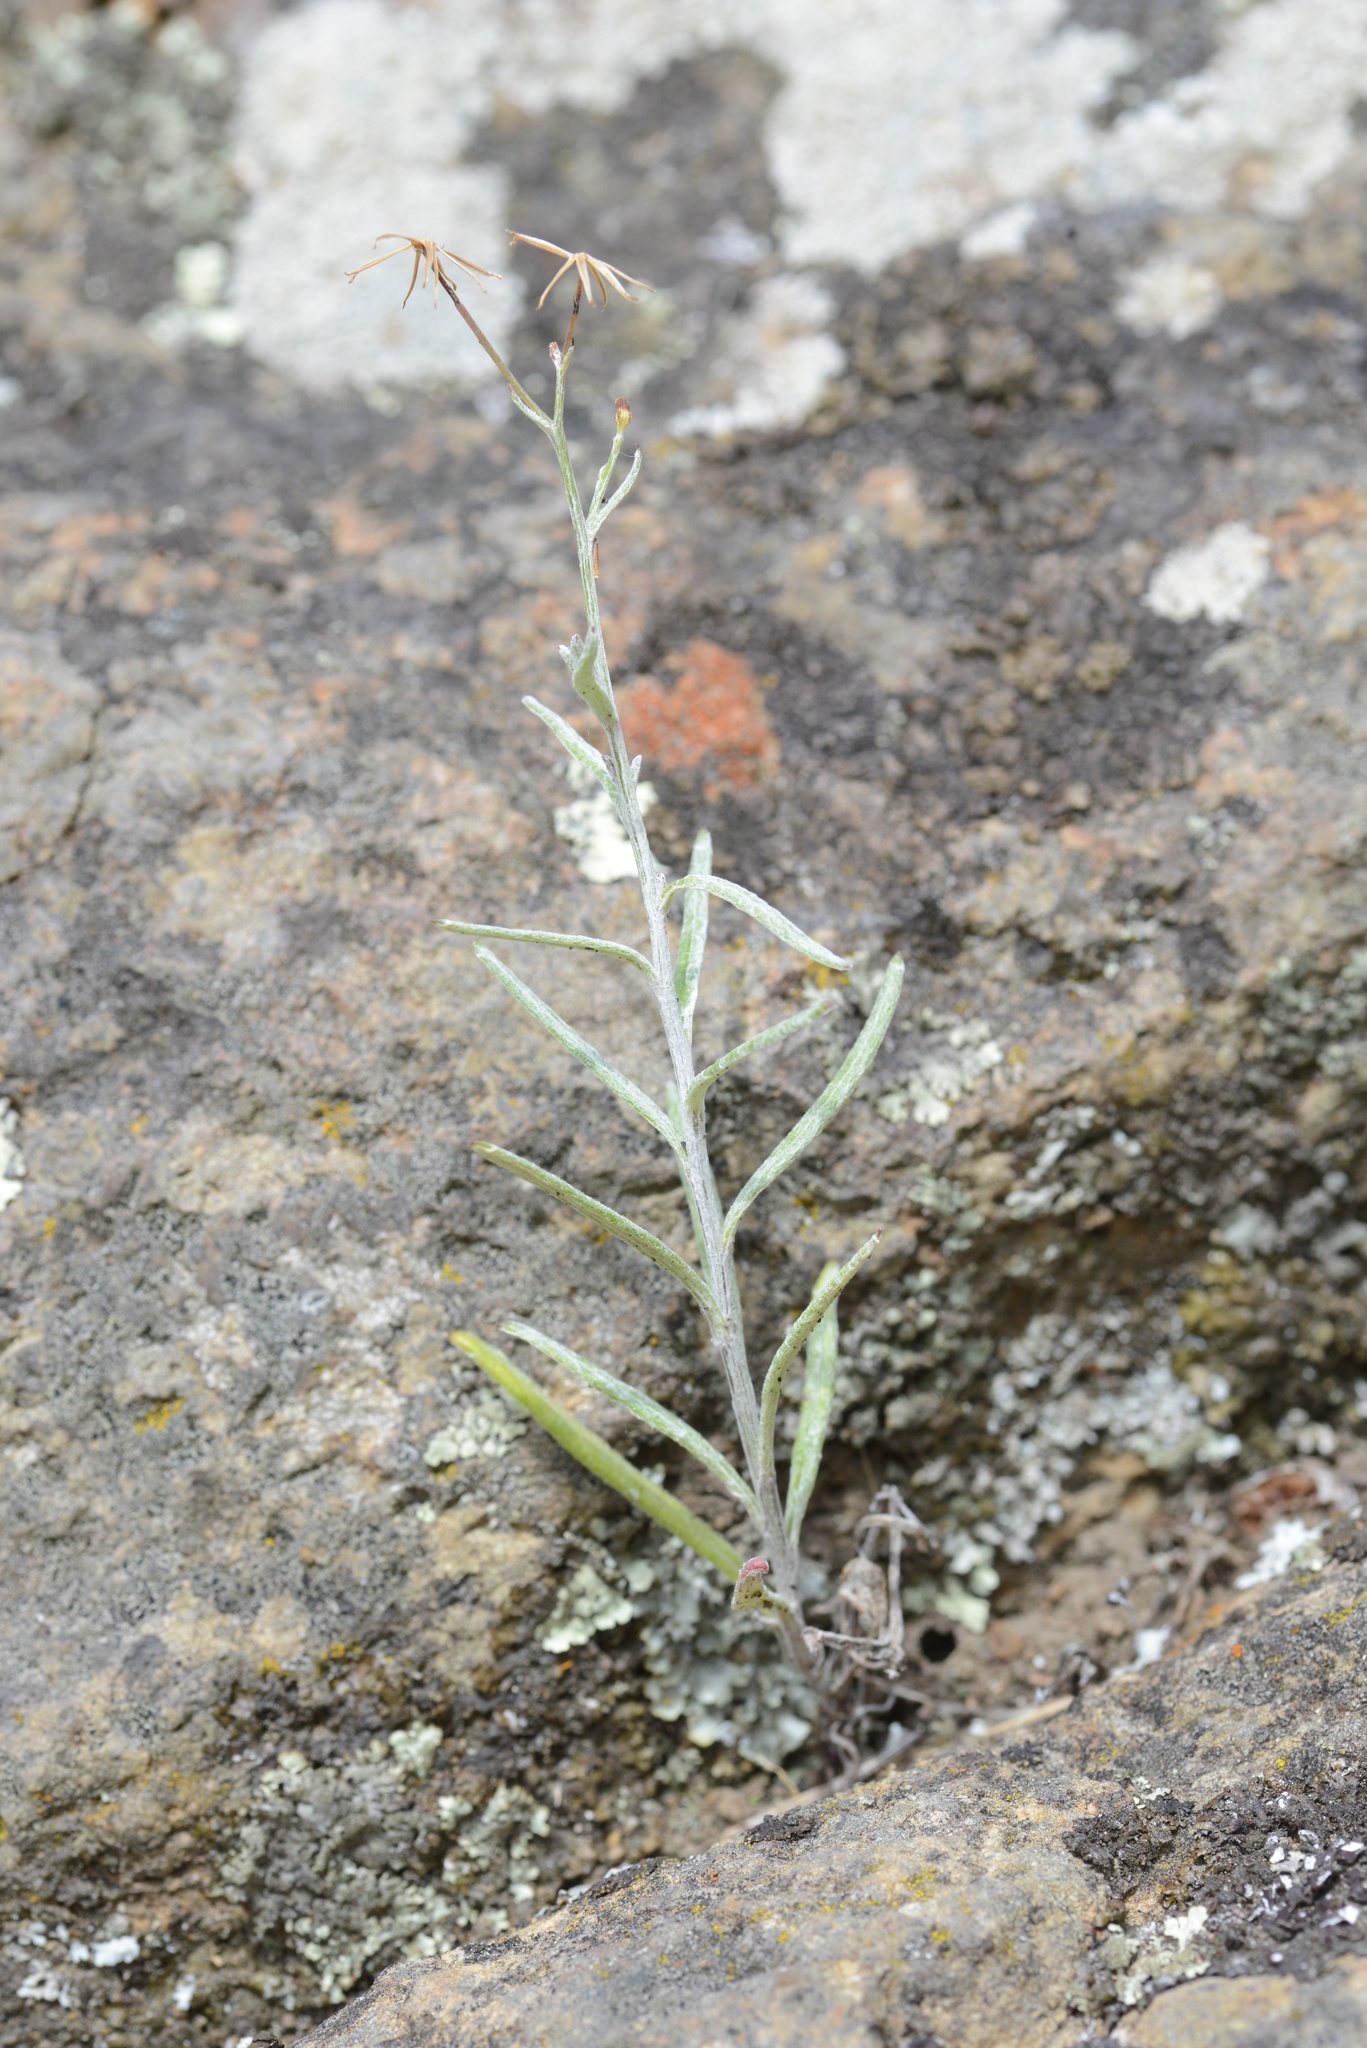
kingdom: Plantae
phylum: Tracheophyta
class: Magnoliopsida
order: Asterales
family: Asteraceae
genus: Senecio
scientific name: Senecio quadridentatus
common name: Cotton fireweed
